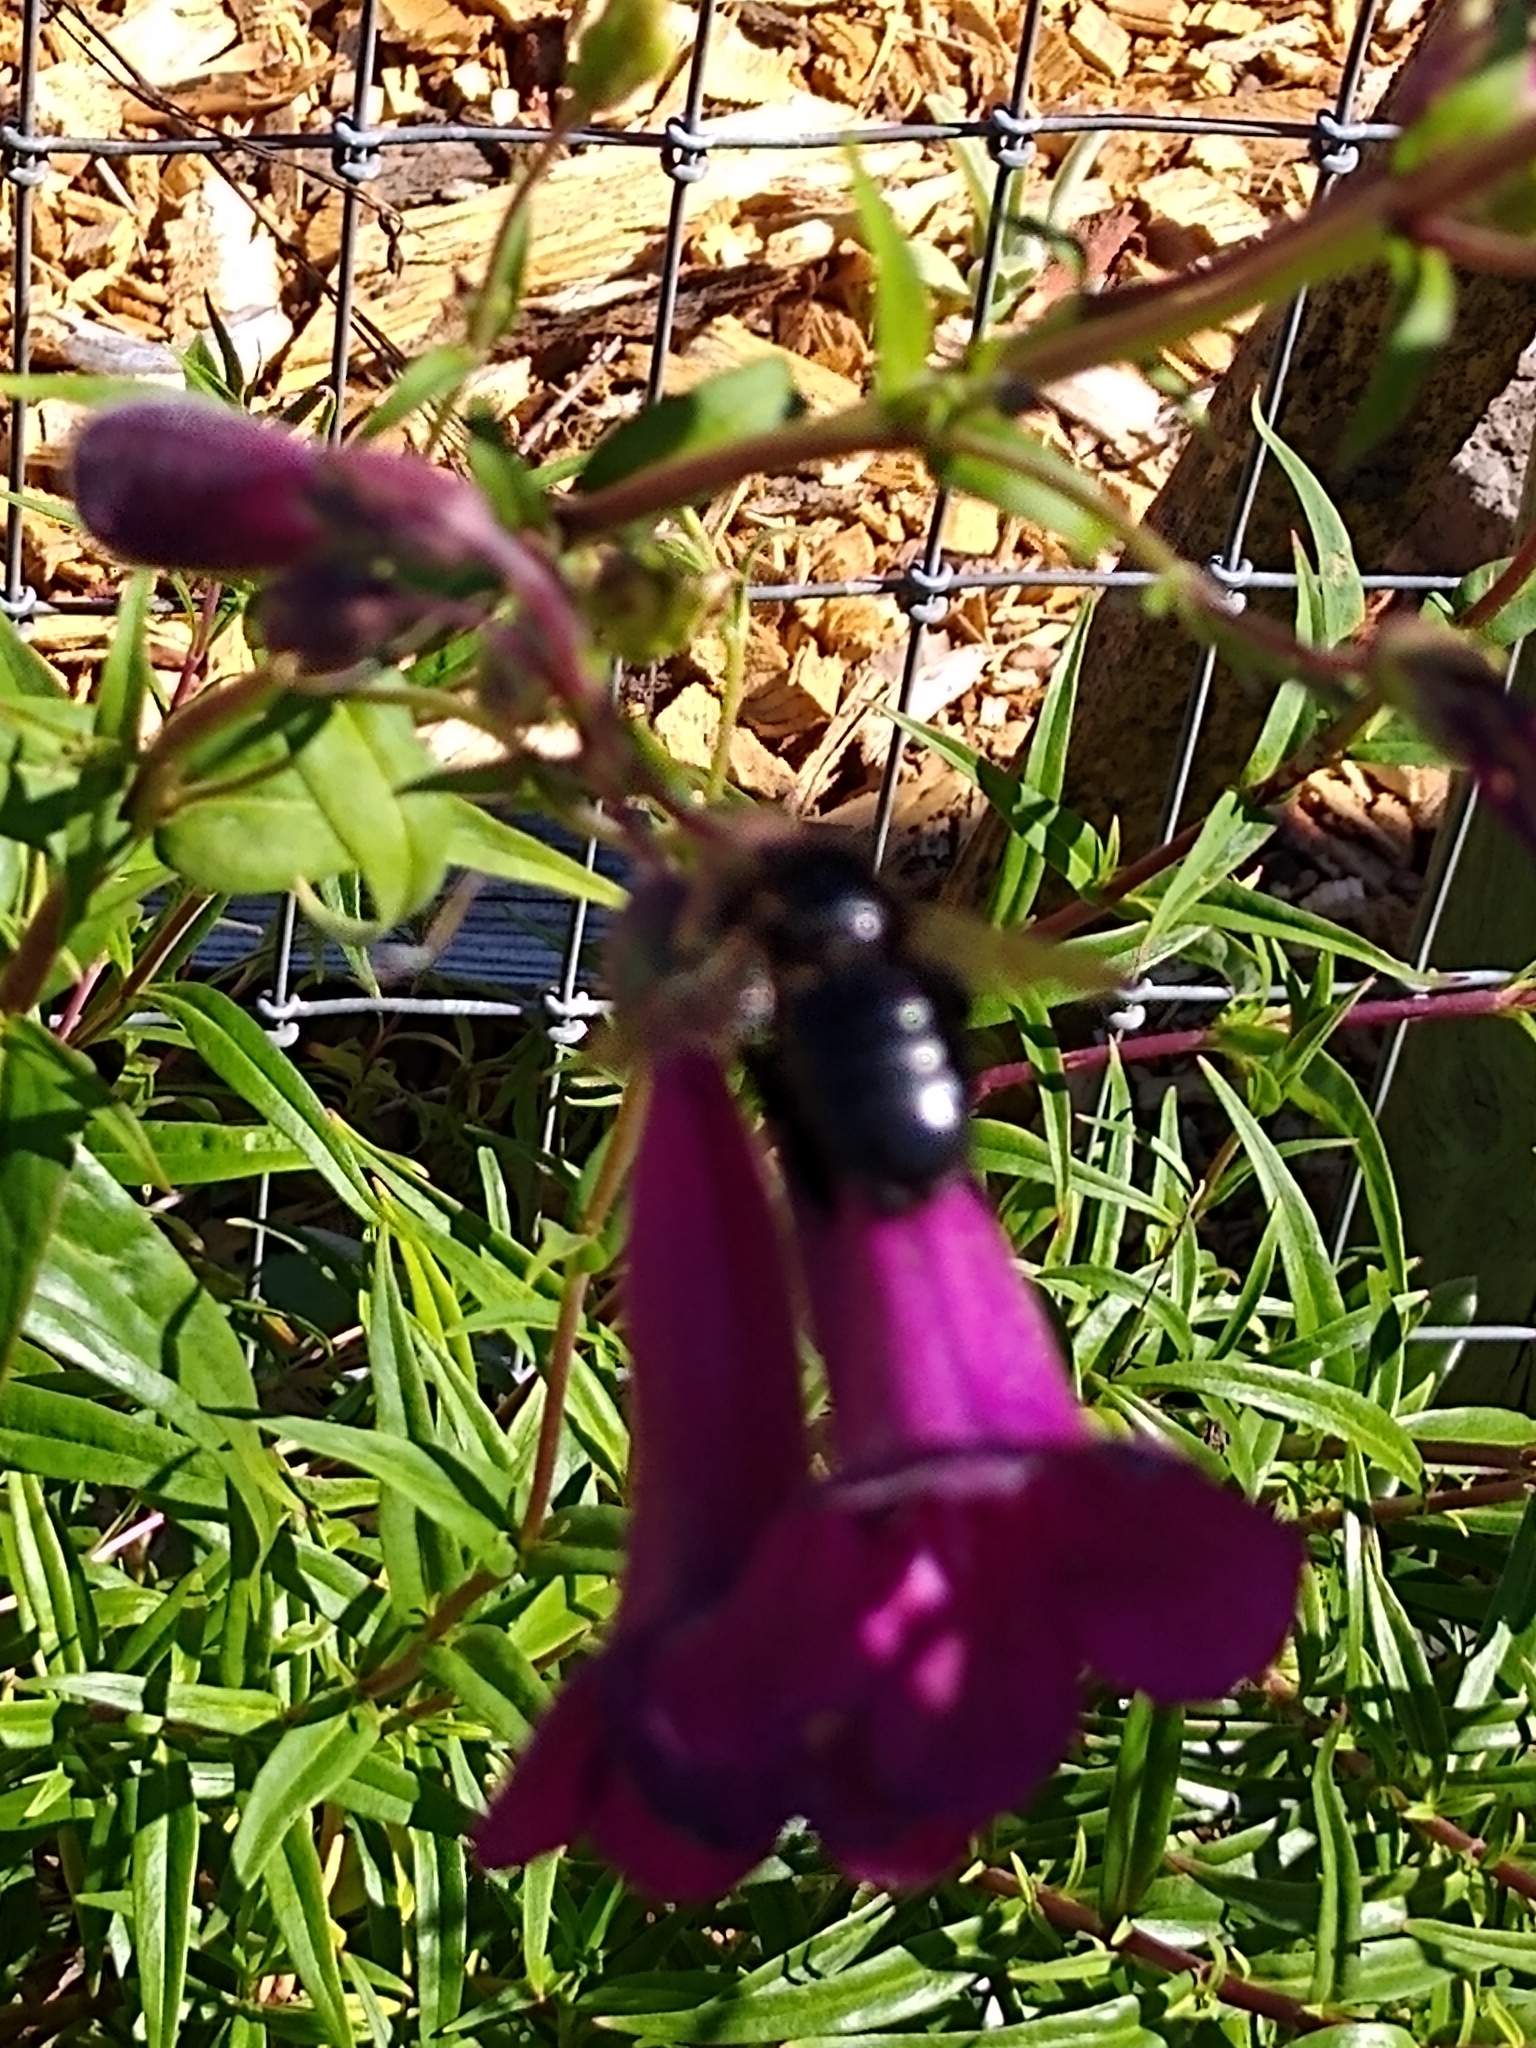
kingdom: Animalia
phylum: Arthropoda
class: Insecta
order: Hymenoptera
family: Apidae
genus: Xylocopa
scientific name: Xylocopa tabaniformis
